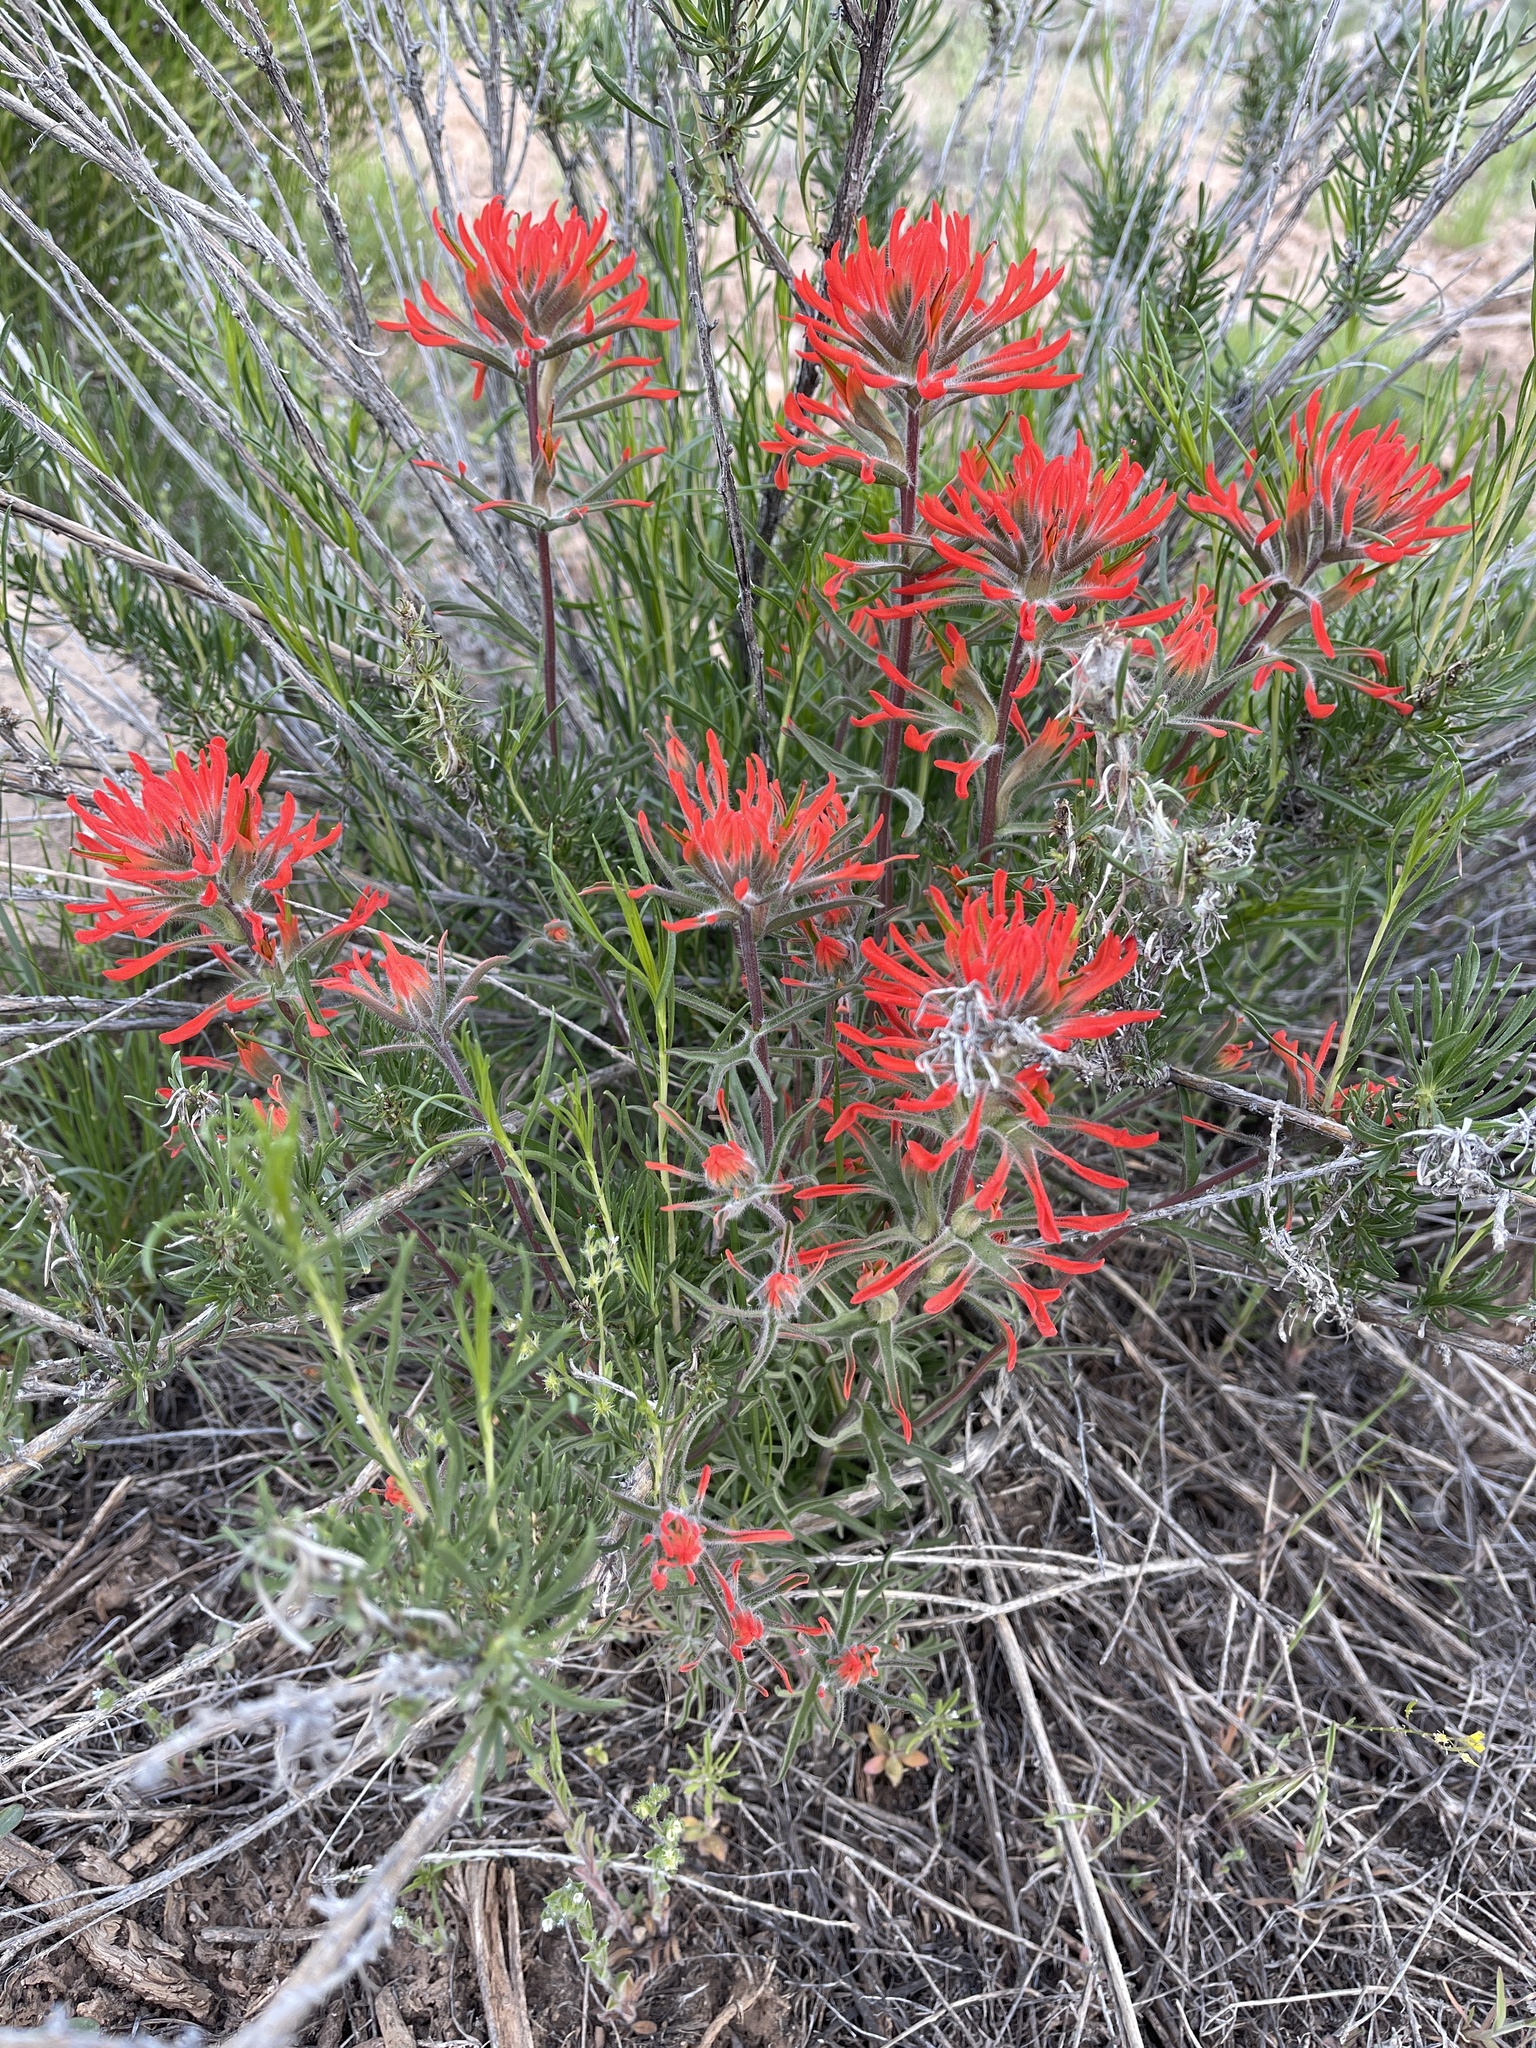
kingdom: Plantae
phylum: Tracheophyta
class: Magnoliopsida
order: Lamiales
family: Orobanchaceae
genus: Castilleja
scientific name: Castilleja chromosa
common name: Desert paintbrush
